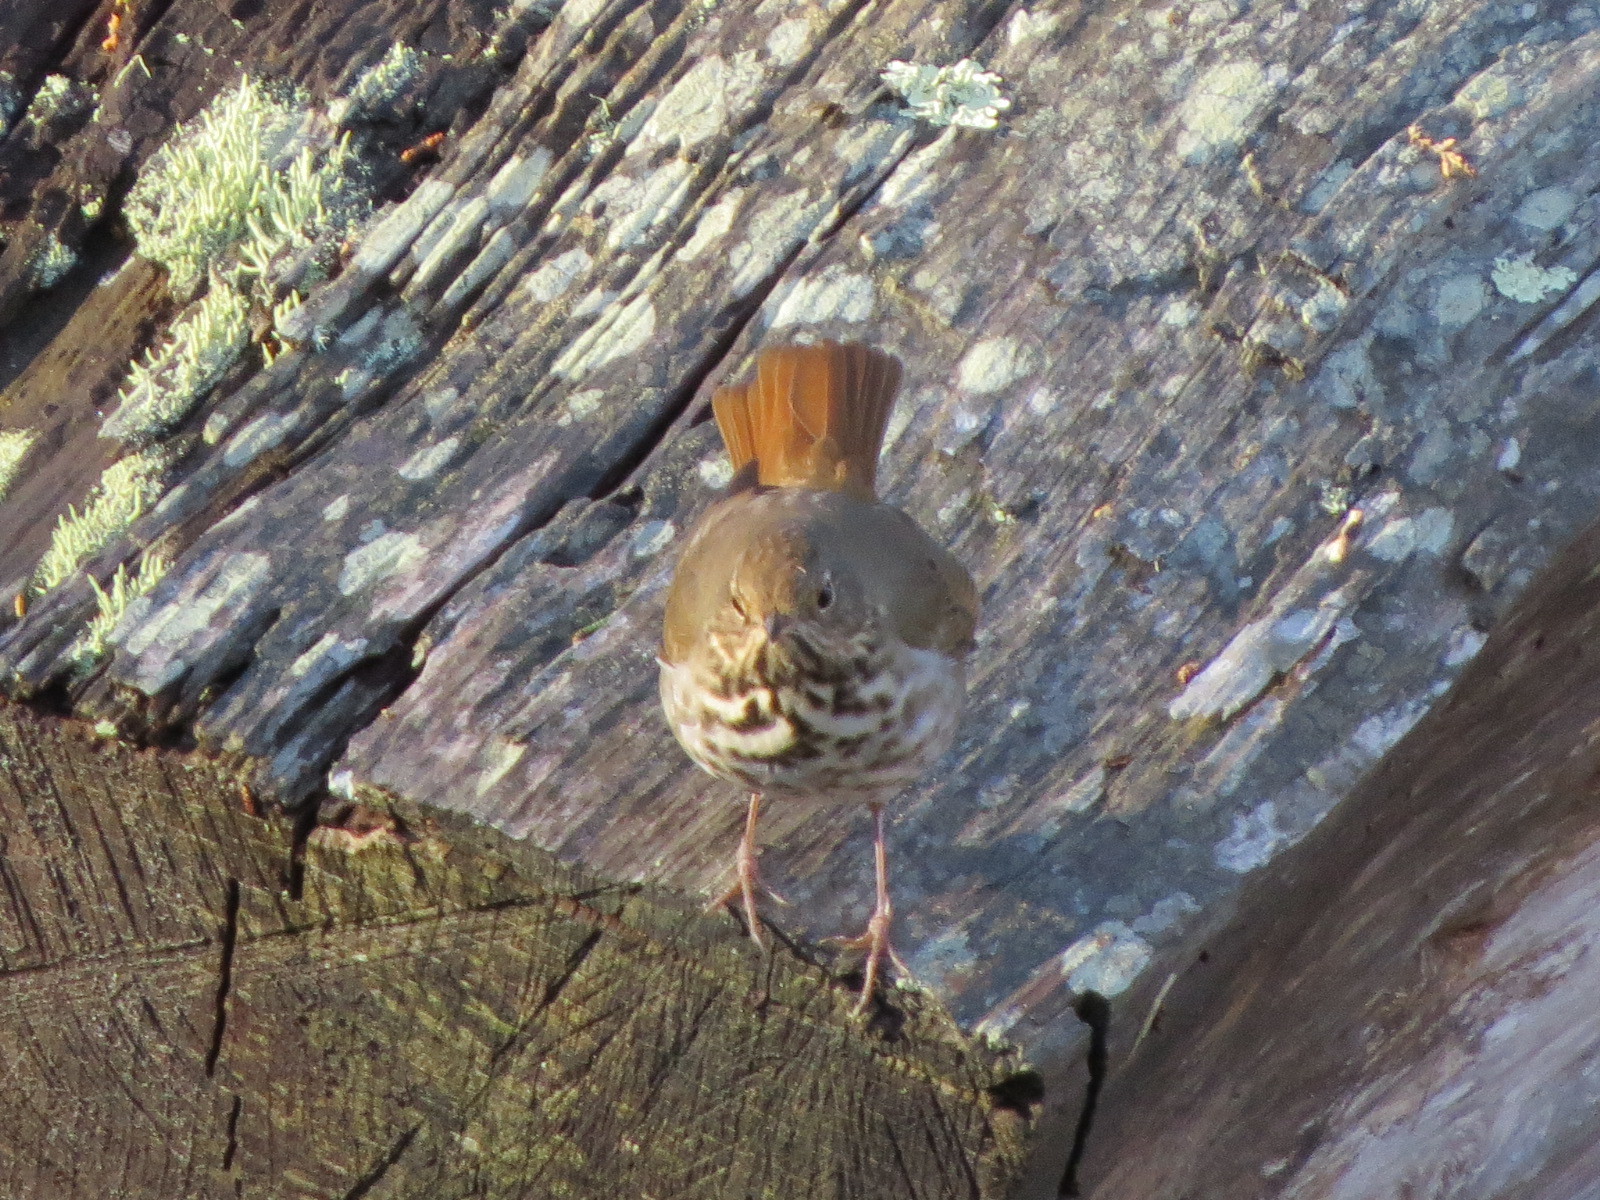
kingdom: Animalia
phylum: Chordata
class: Aves
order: Passeriformes
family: Turdidae
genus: Catharus
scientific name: Catharus guttatus
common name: Hermit thrush
